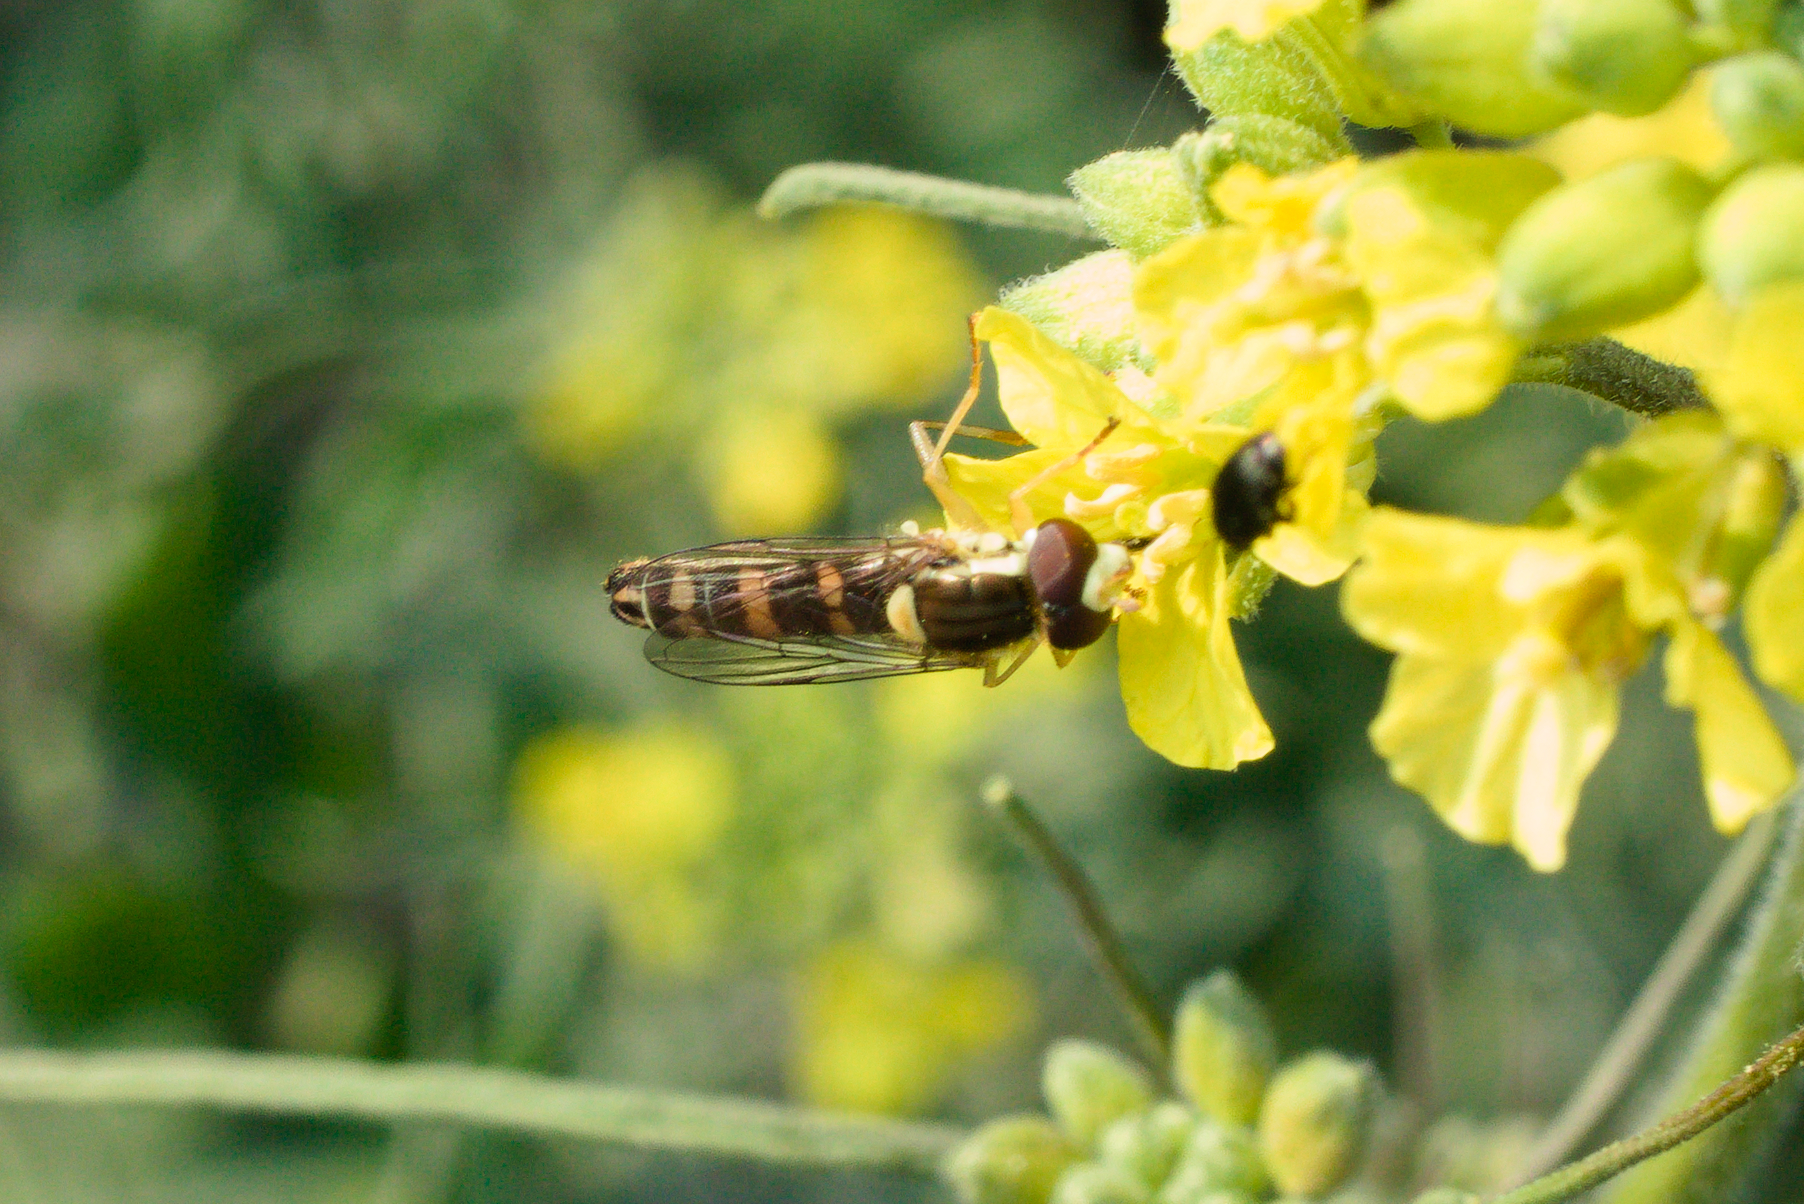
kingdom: Animalia
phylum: Arthropoda
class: Insecta
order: Diptera
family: Syrphidae
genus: Sphaerophoria
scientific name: Sphaerophoria scripta
